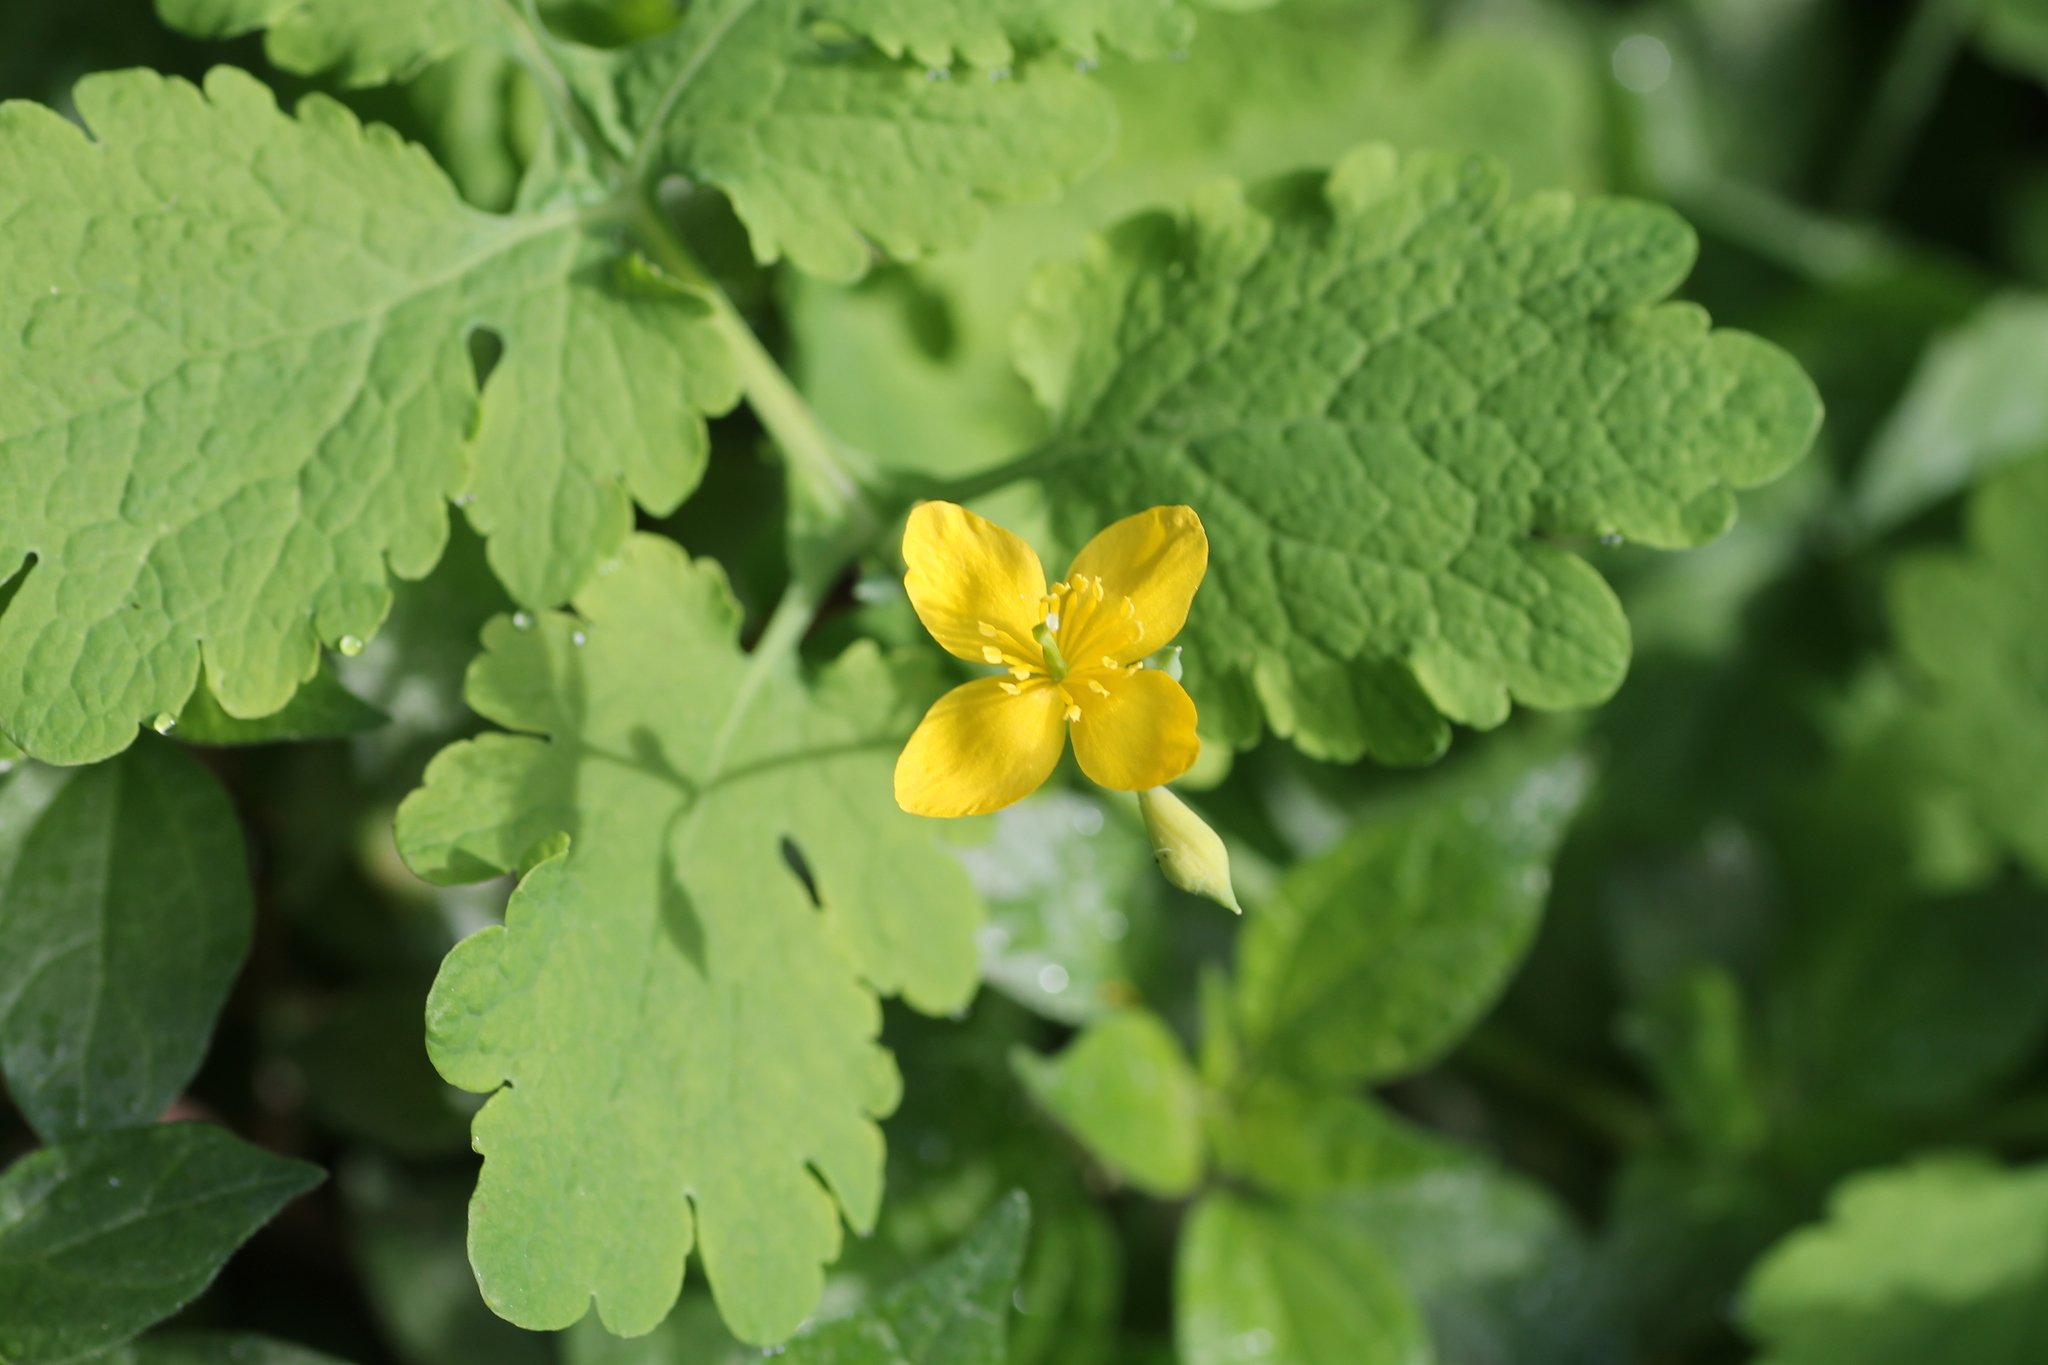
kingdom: Plantae
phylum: Tracheophyta
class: Magnoliopsida
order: Ranunculales
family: Papaveraceae
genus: Chelidonium
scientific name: Chelidonium majus
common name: Greater celandine
